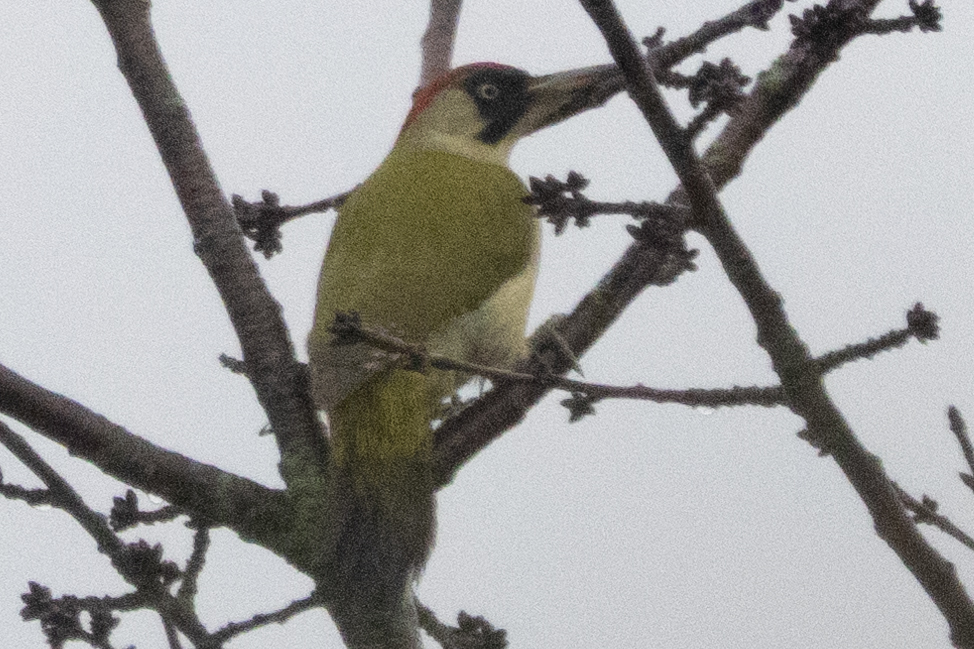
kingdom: Animalia
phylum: Chordata
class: Aves
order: Piciformes
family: Picidae
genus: Picus
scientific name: Picus viridis
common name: European green woodpecker
